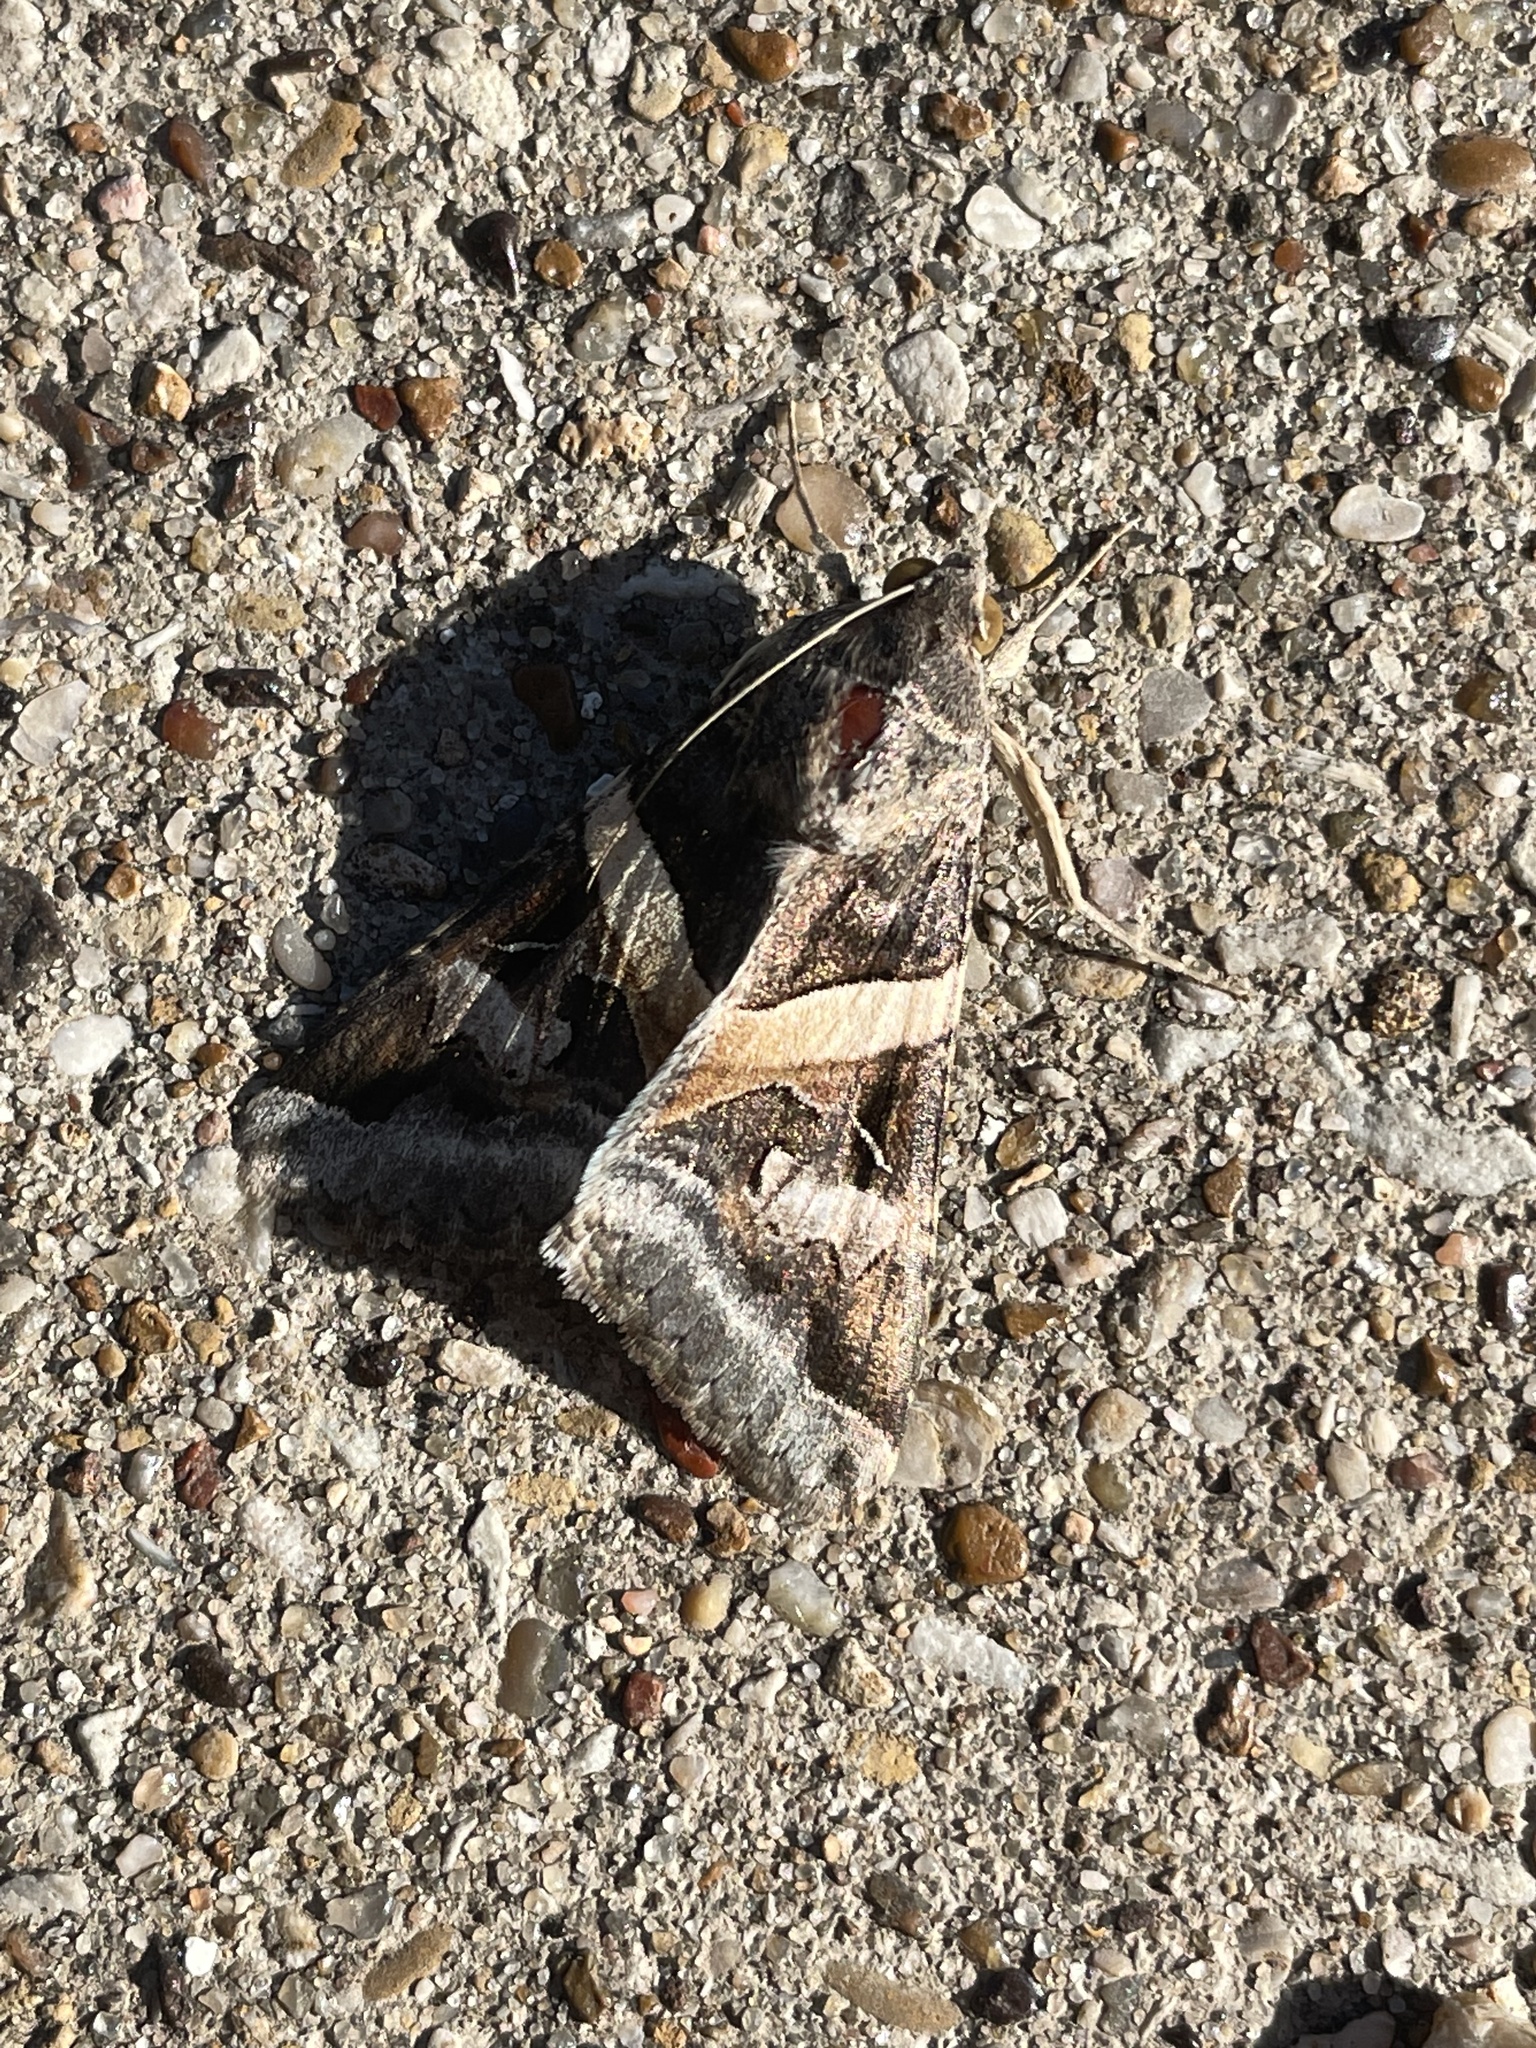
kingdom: Animalia
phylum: Arthropoda
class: Insecta
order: Lepidoptera
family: Erebidae
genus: Melipotis
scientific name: Melipotis indomita
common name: Moth
